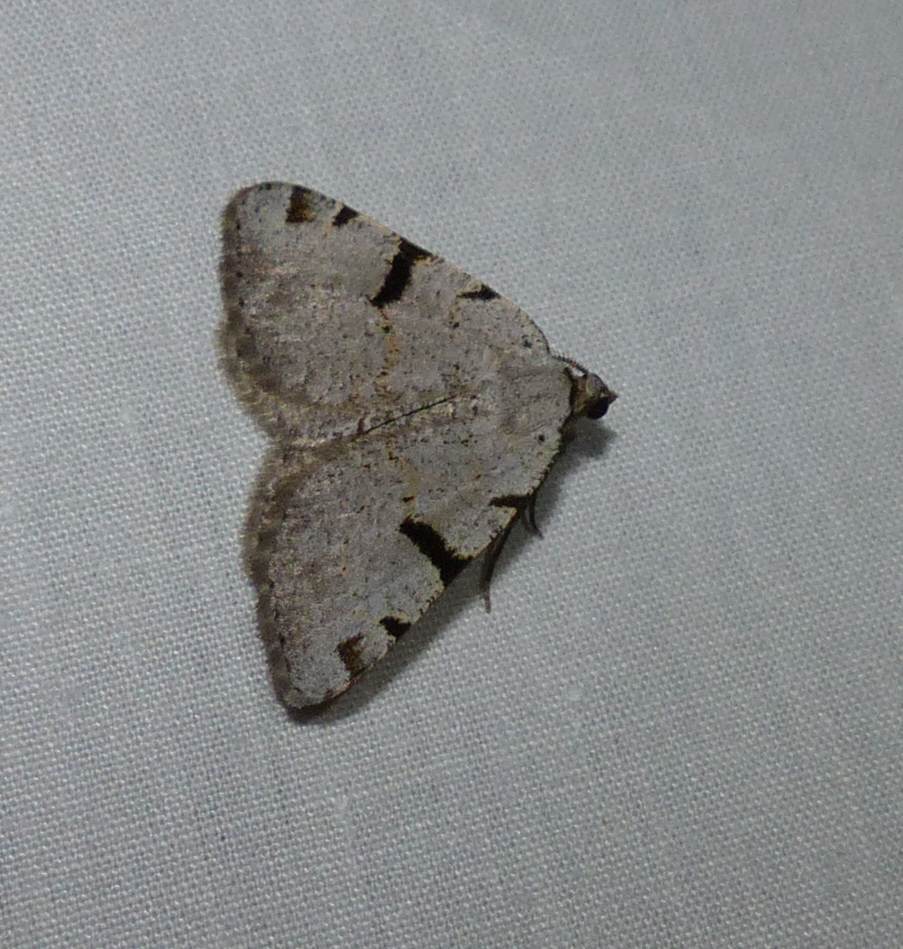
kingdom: Animalia
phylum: Arthropoda
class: Insecta
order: Lepidoptera
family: Geometridae
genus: Macaria
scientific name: Macaria subcessaria
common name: Barred angle
